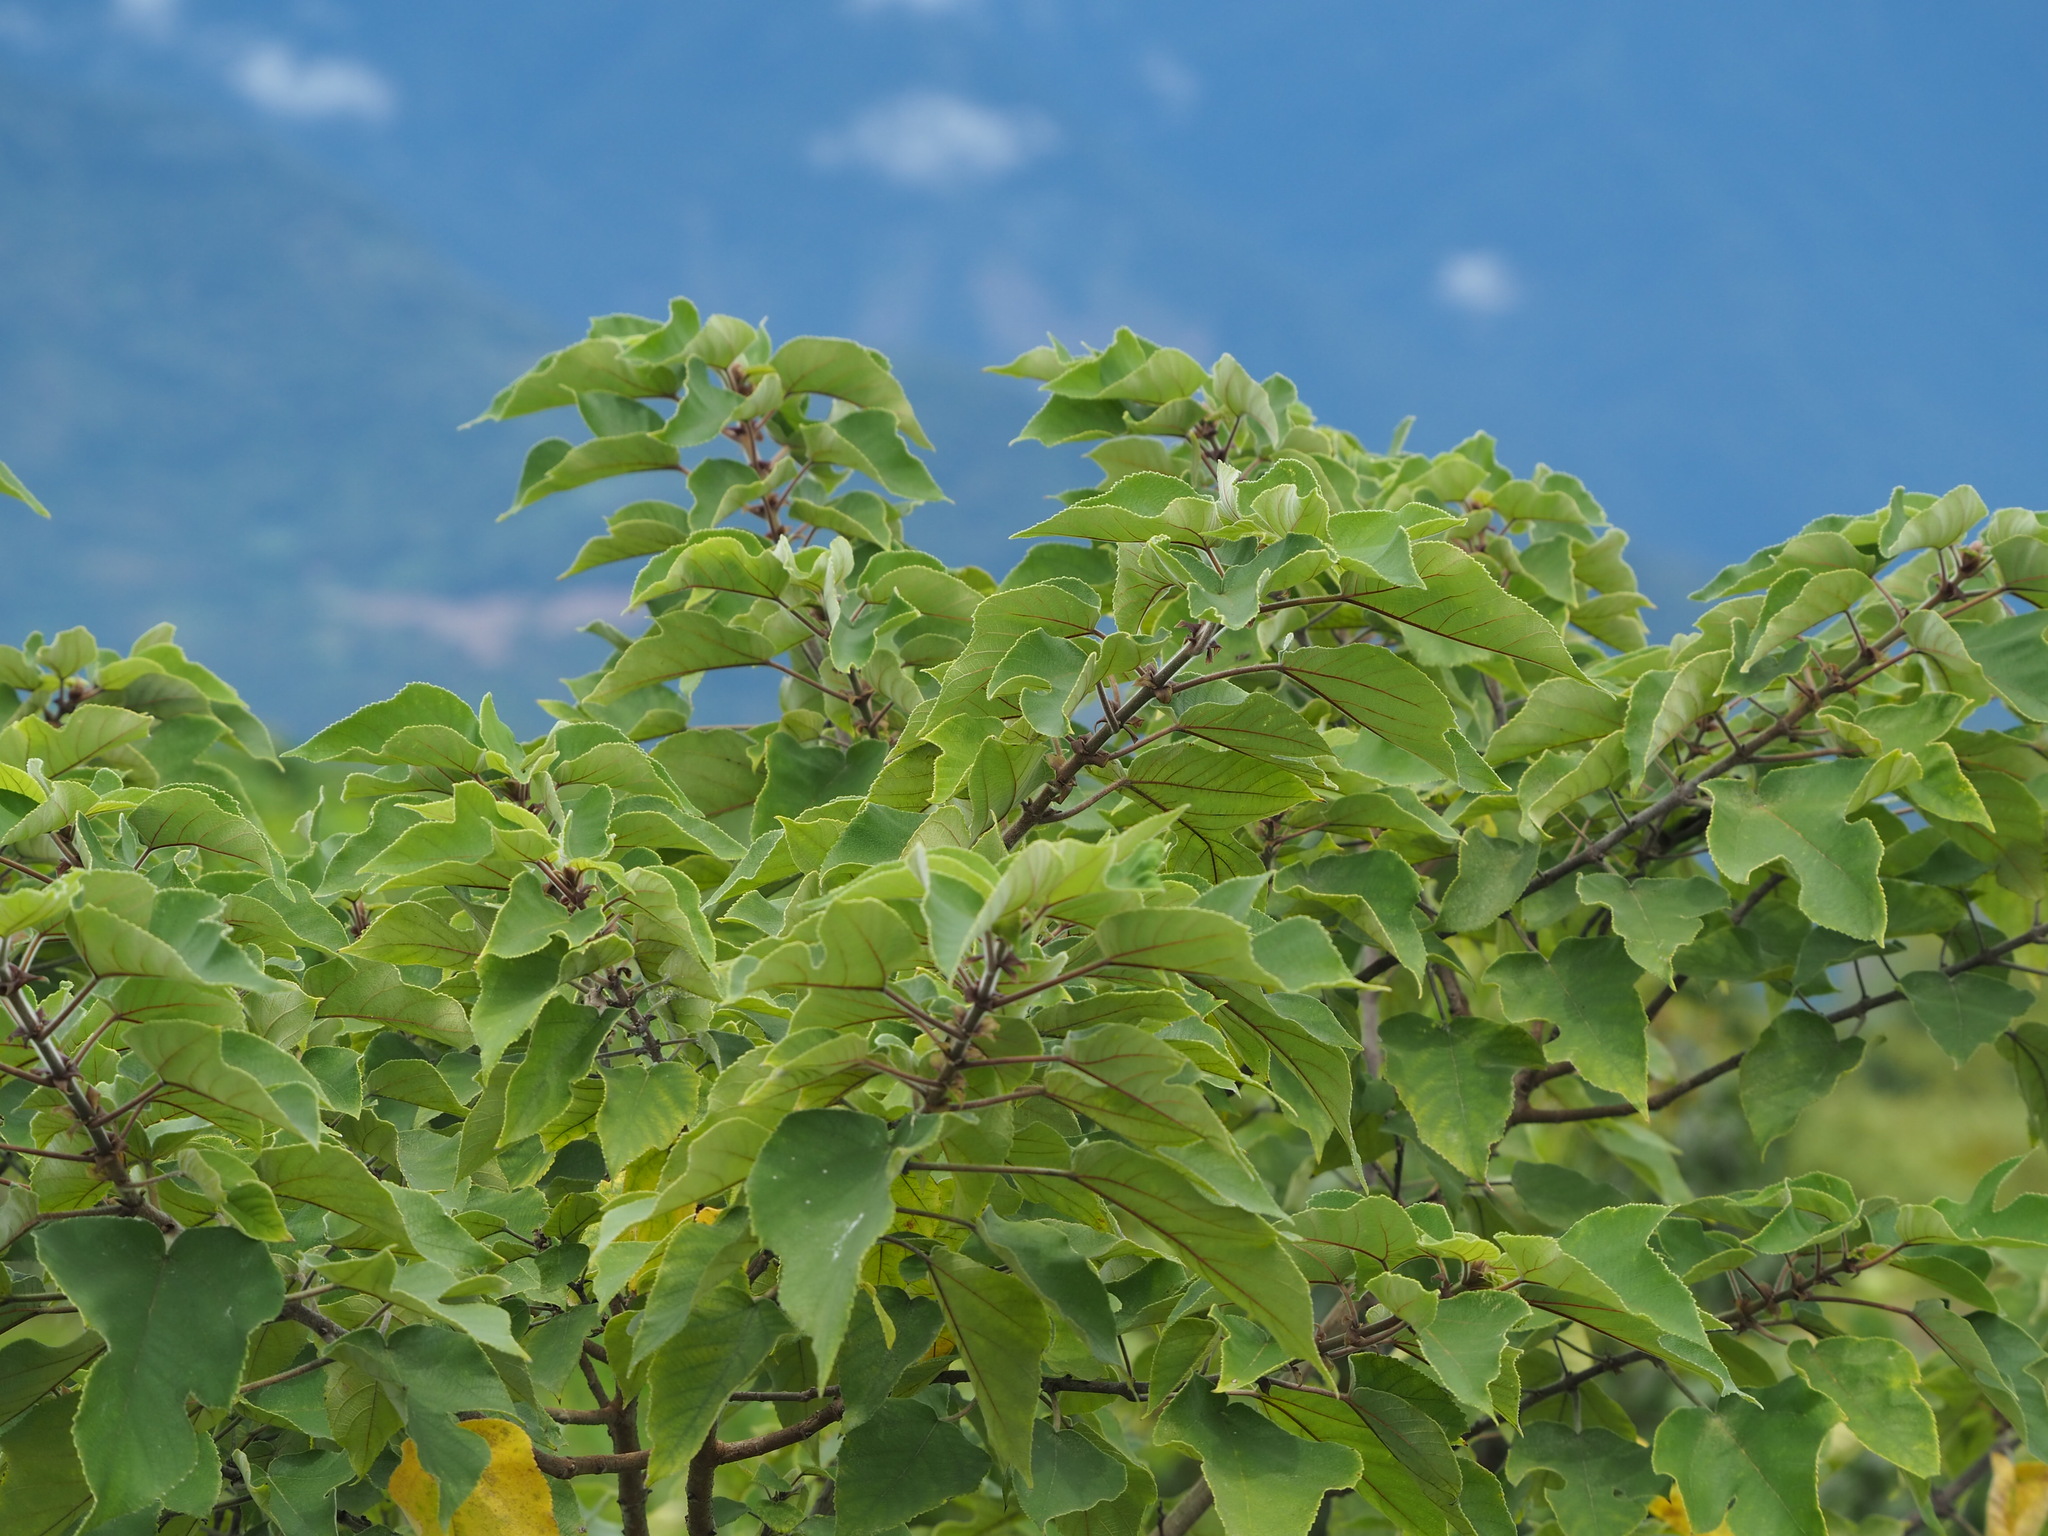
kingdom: Plantae
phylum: Tracheophyta
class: Magnoliopsida
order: Rosales
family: Moraceae
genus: Broussonetia
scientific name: Broussonetia papyrifera
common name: Paper mulberry
